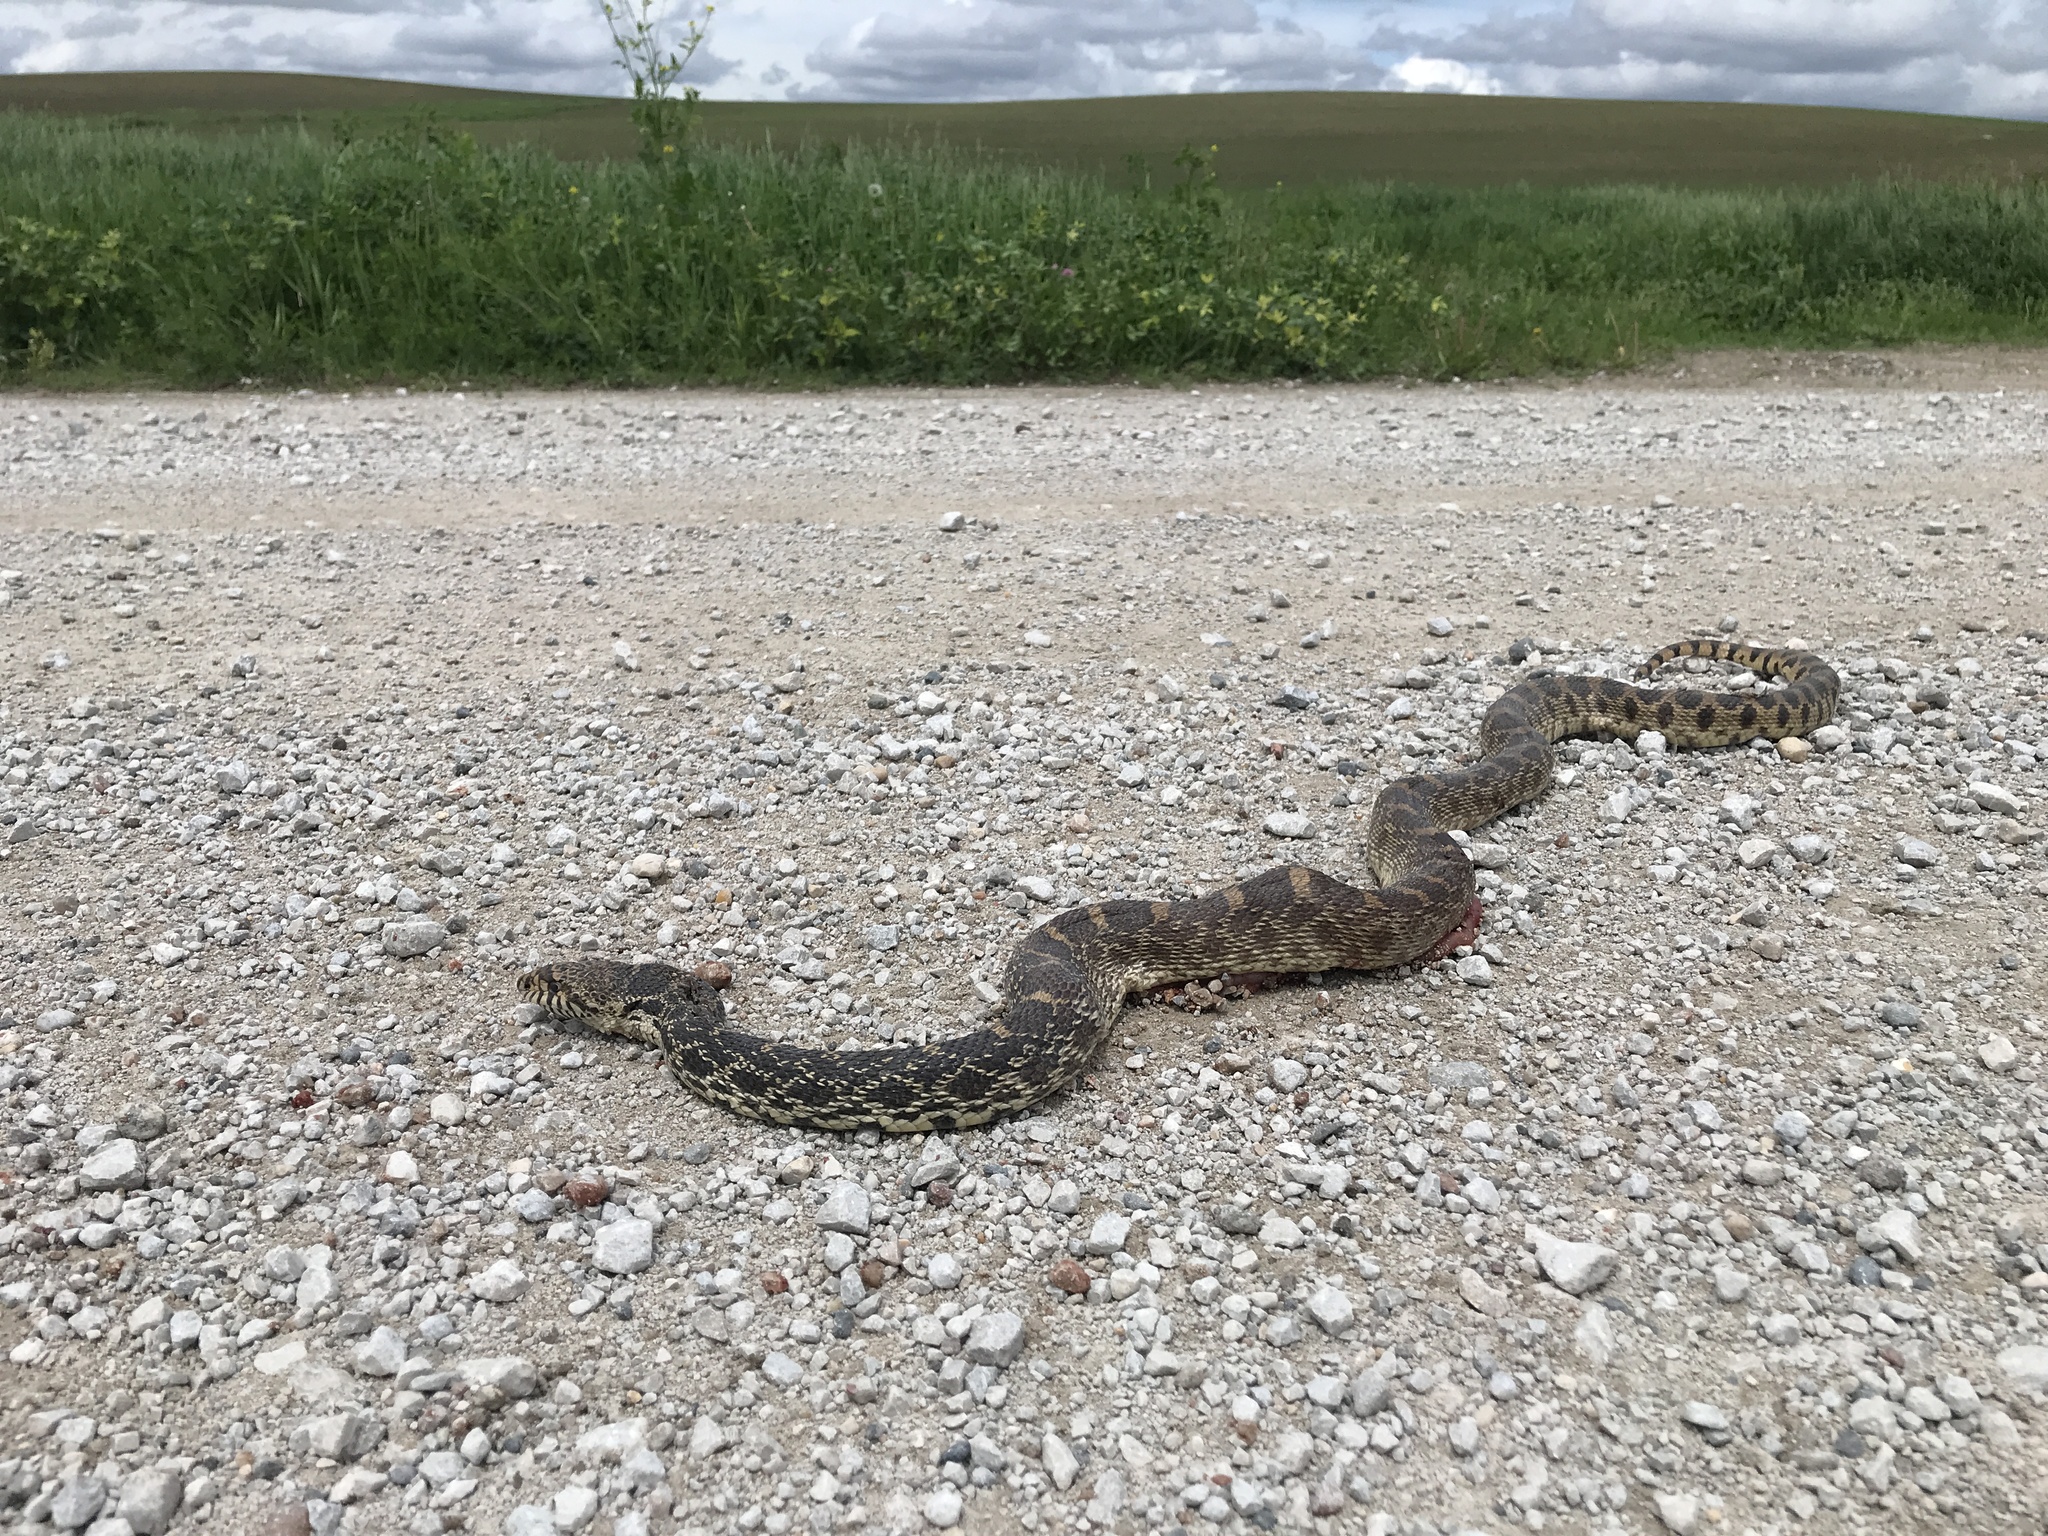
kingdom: Animalia
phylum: Chordata
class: Squamata
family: Colubridae
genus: Pituophis
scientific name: Pituophis catenifer
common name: Gopher snake
